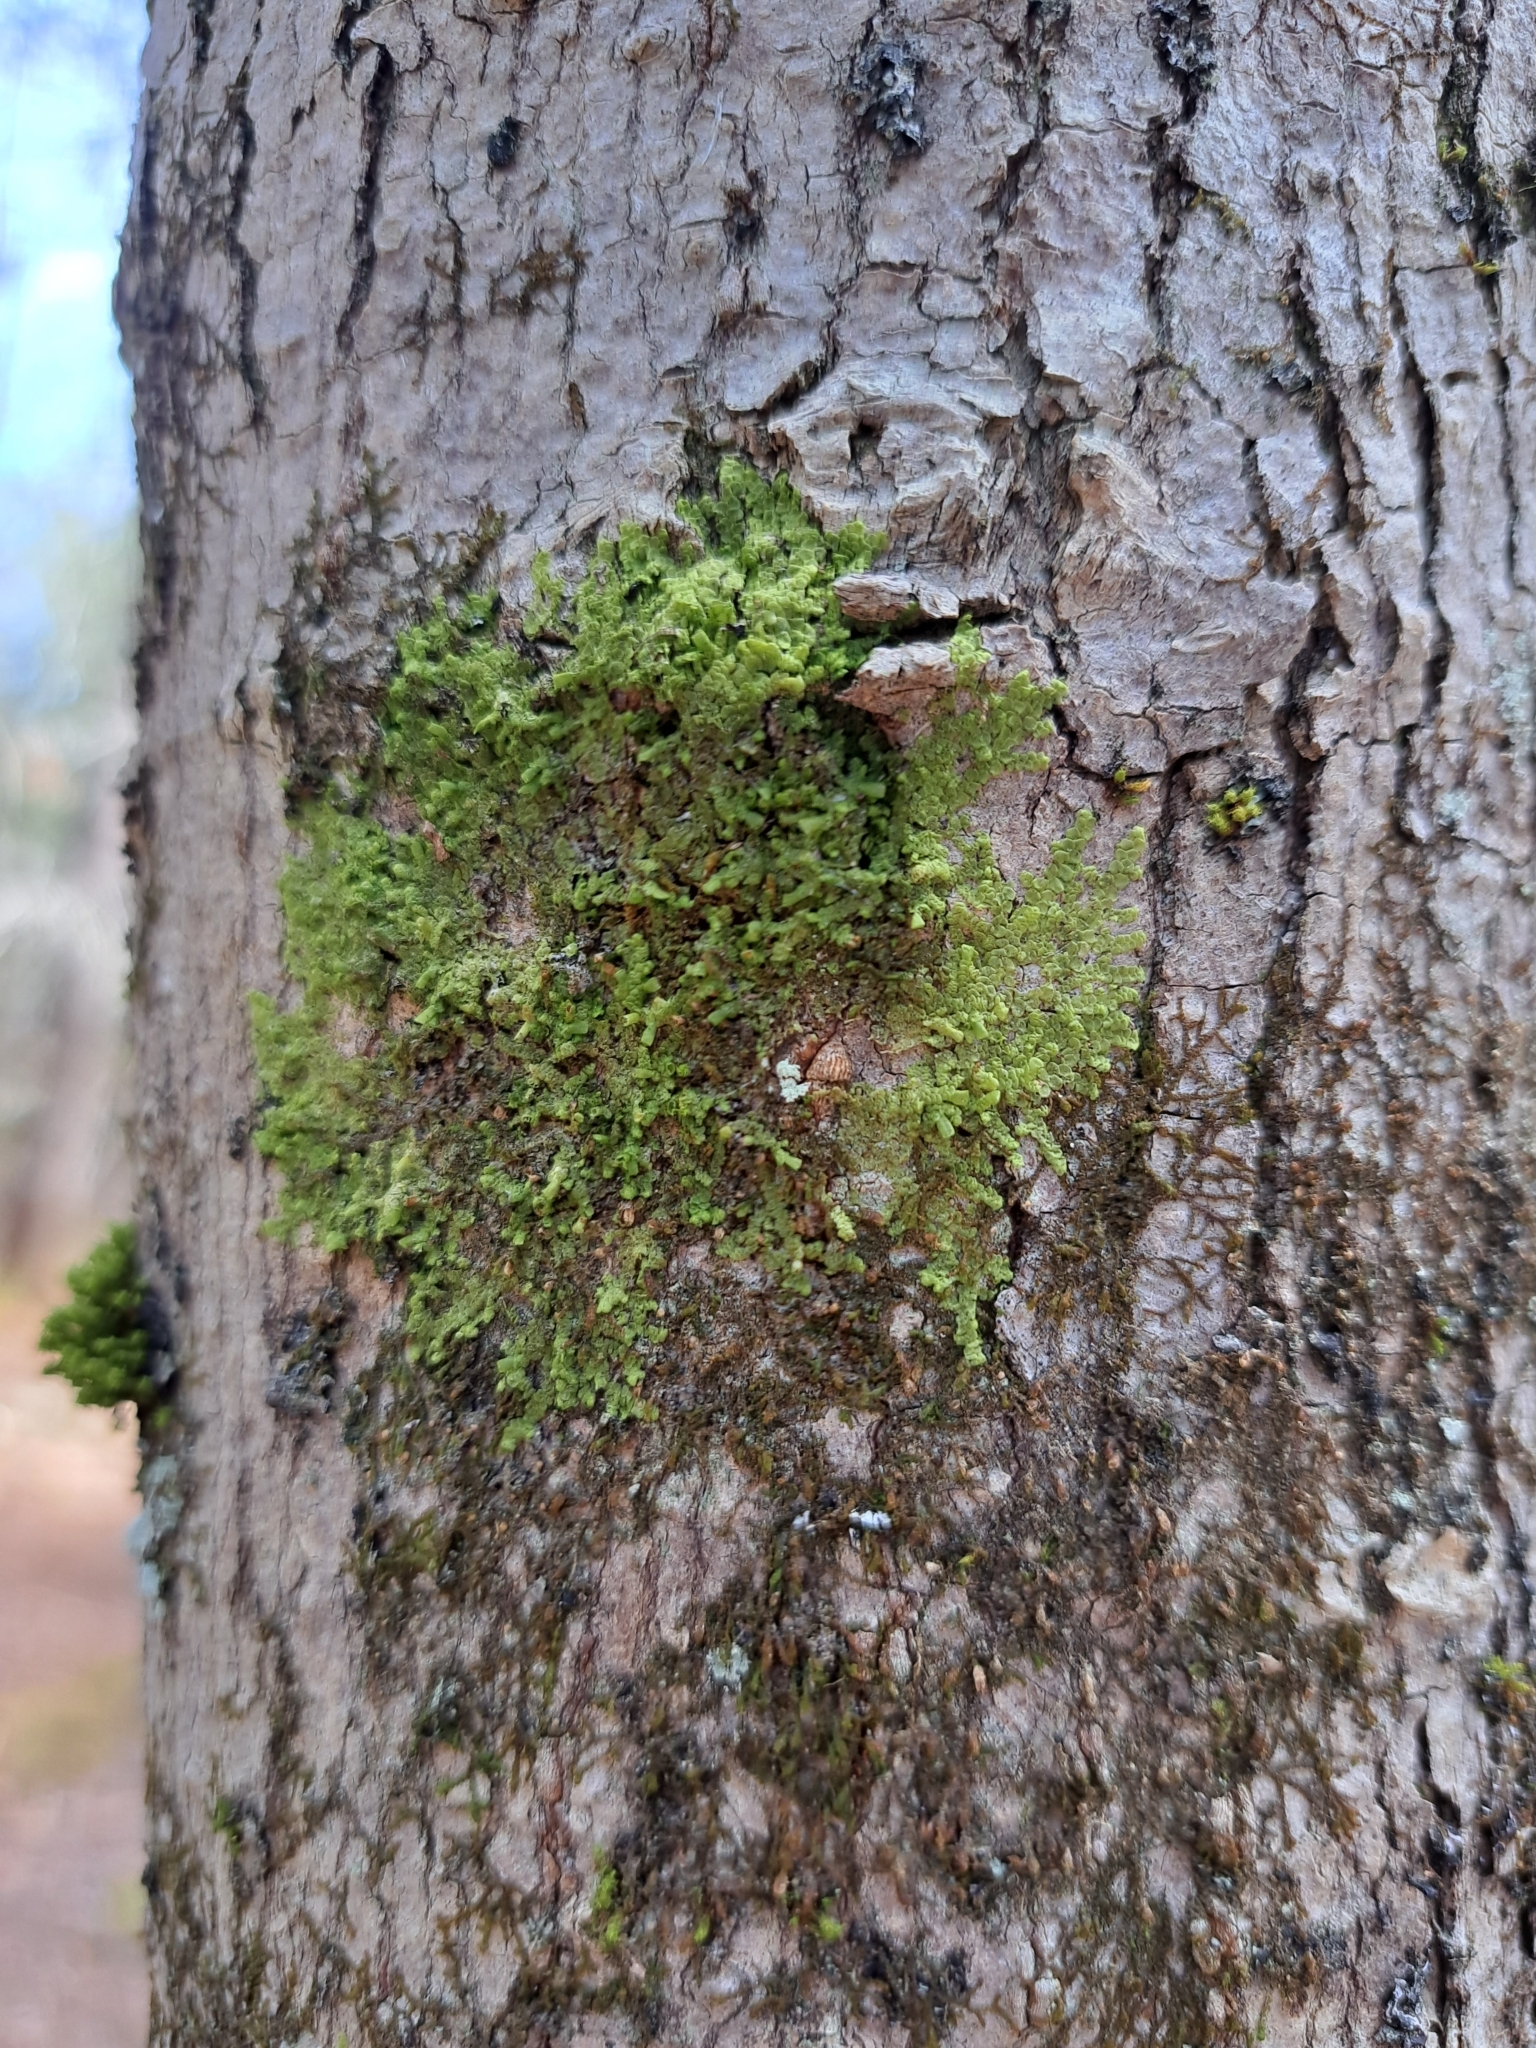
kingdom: Plantae
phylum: Marchantiophyta
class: Jungermanniopsida
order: Porellales
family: Radulaceae
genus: Radula
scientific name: Radula complanata
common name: Flat-leaved scalewort
